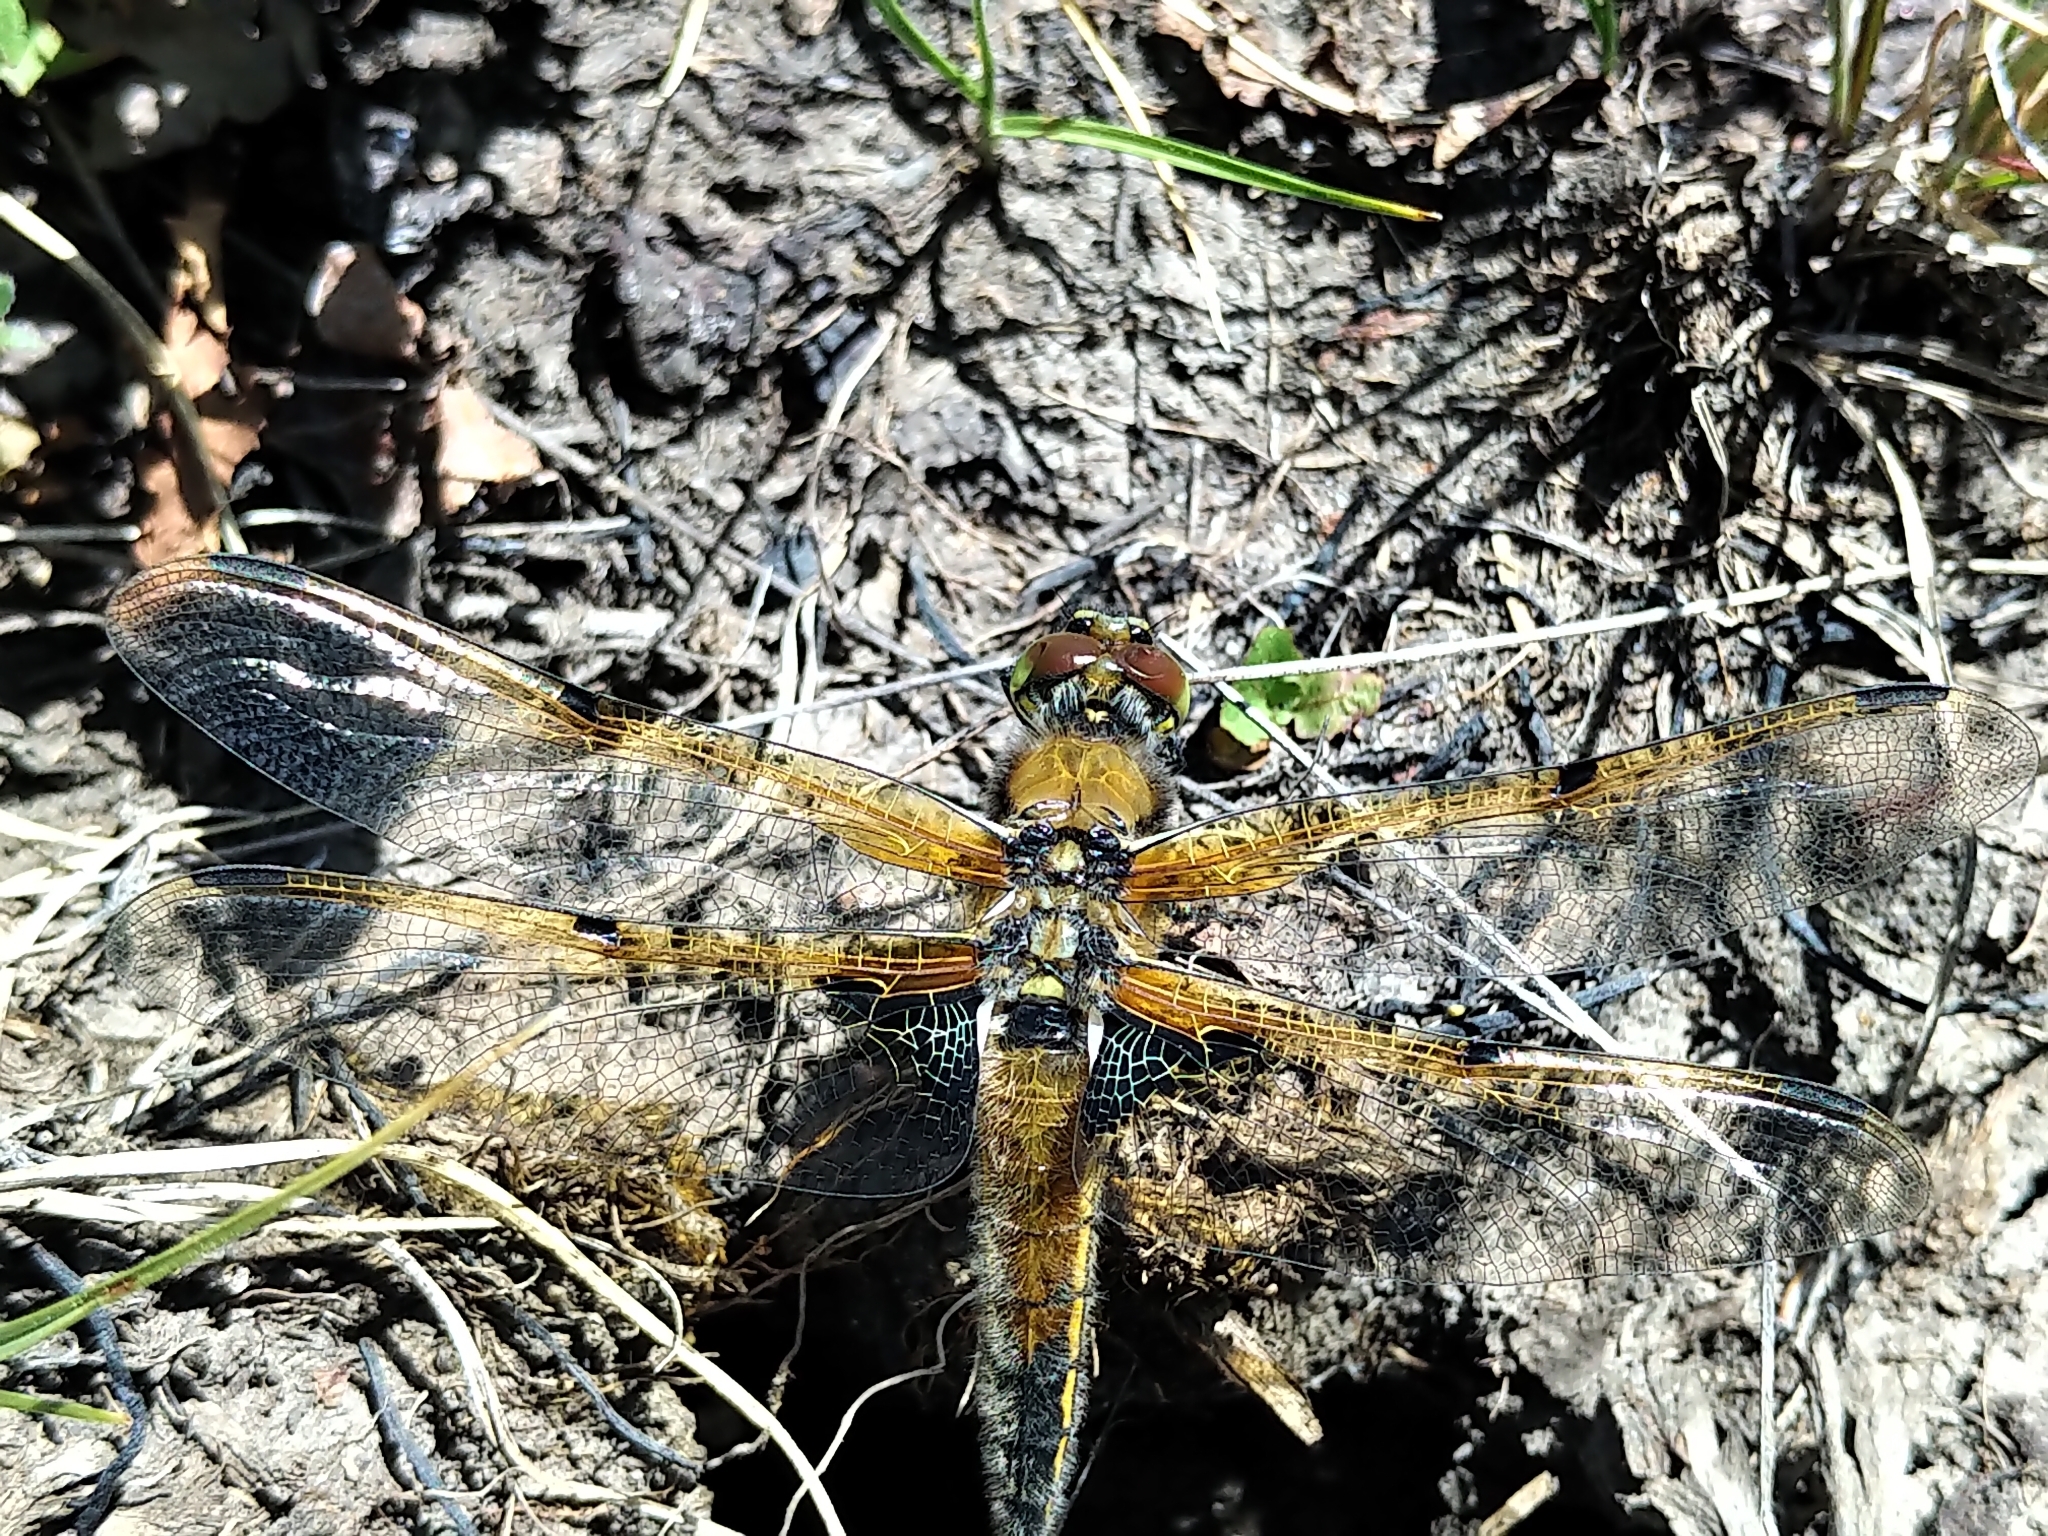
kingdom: Animalia
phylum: Arthropoda
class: Insecta
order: Odonata
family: Libellulidae
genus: Libellula
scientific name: Libellula quadrimaculata
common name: Four-spotted chaser
